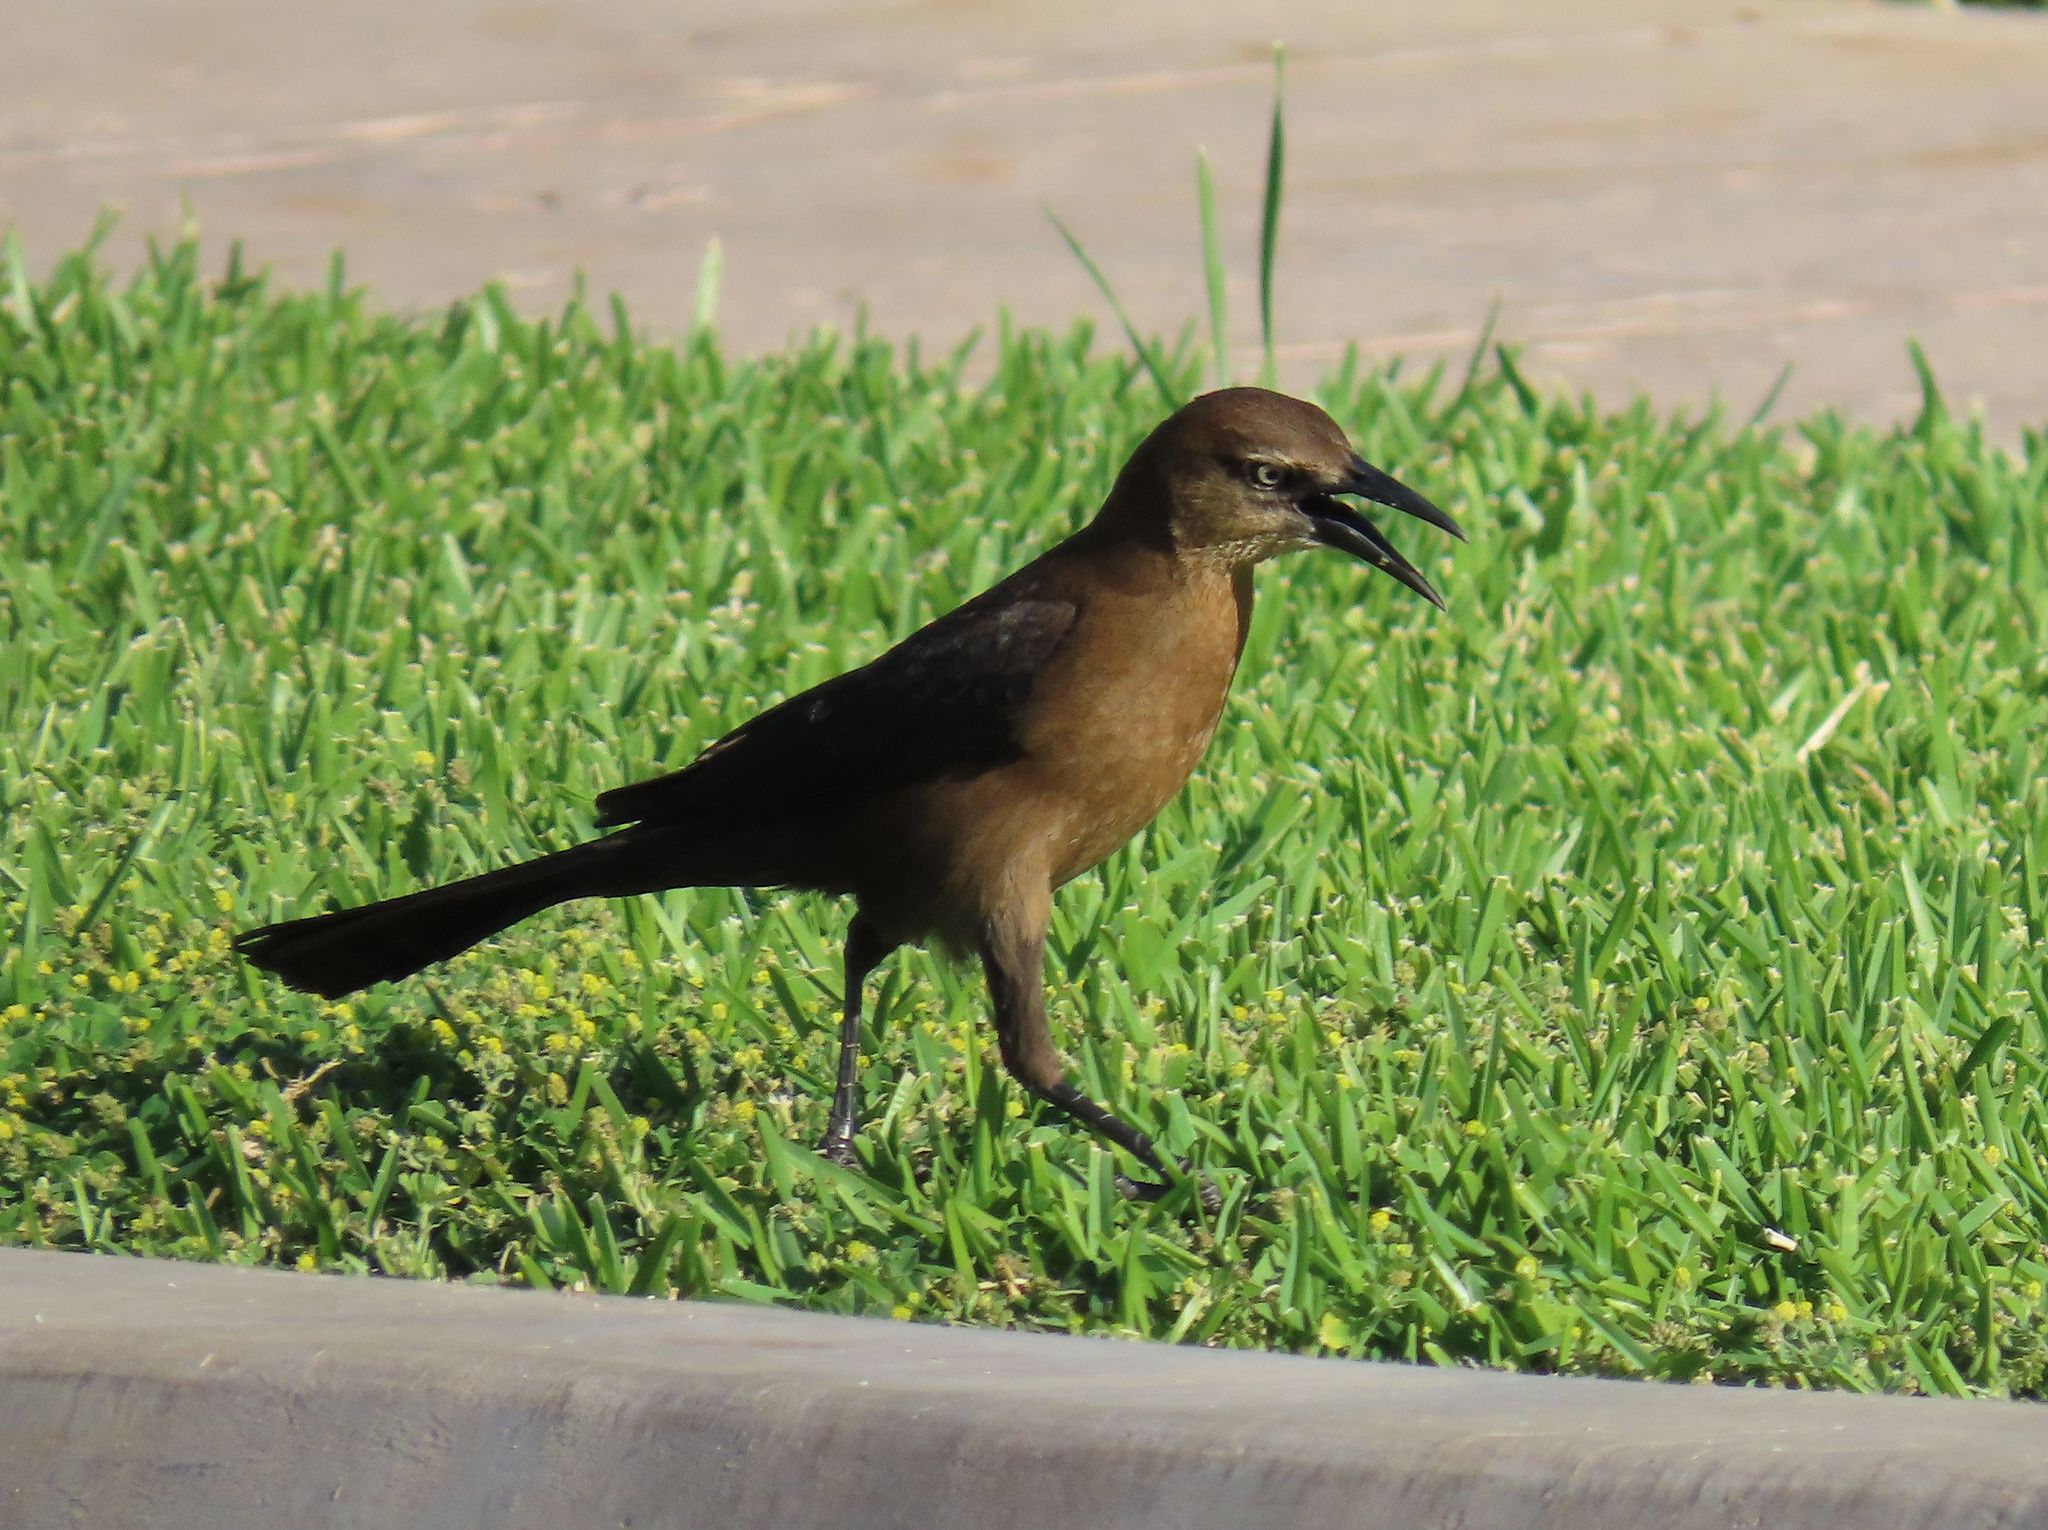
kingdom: Animalia
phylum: Chordata
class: Aves
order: Passeriformes
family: Icteridae
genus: Quiscalus
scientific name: Quiscalus mexicanus
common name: Great-tailed grackle
